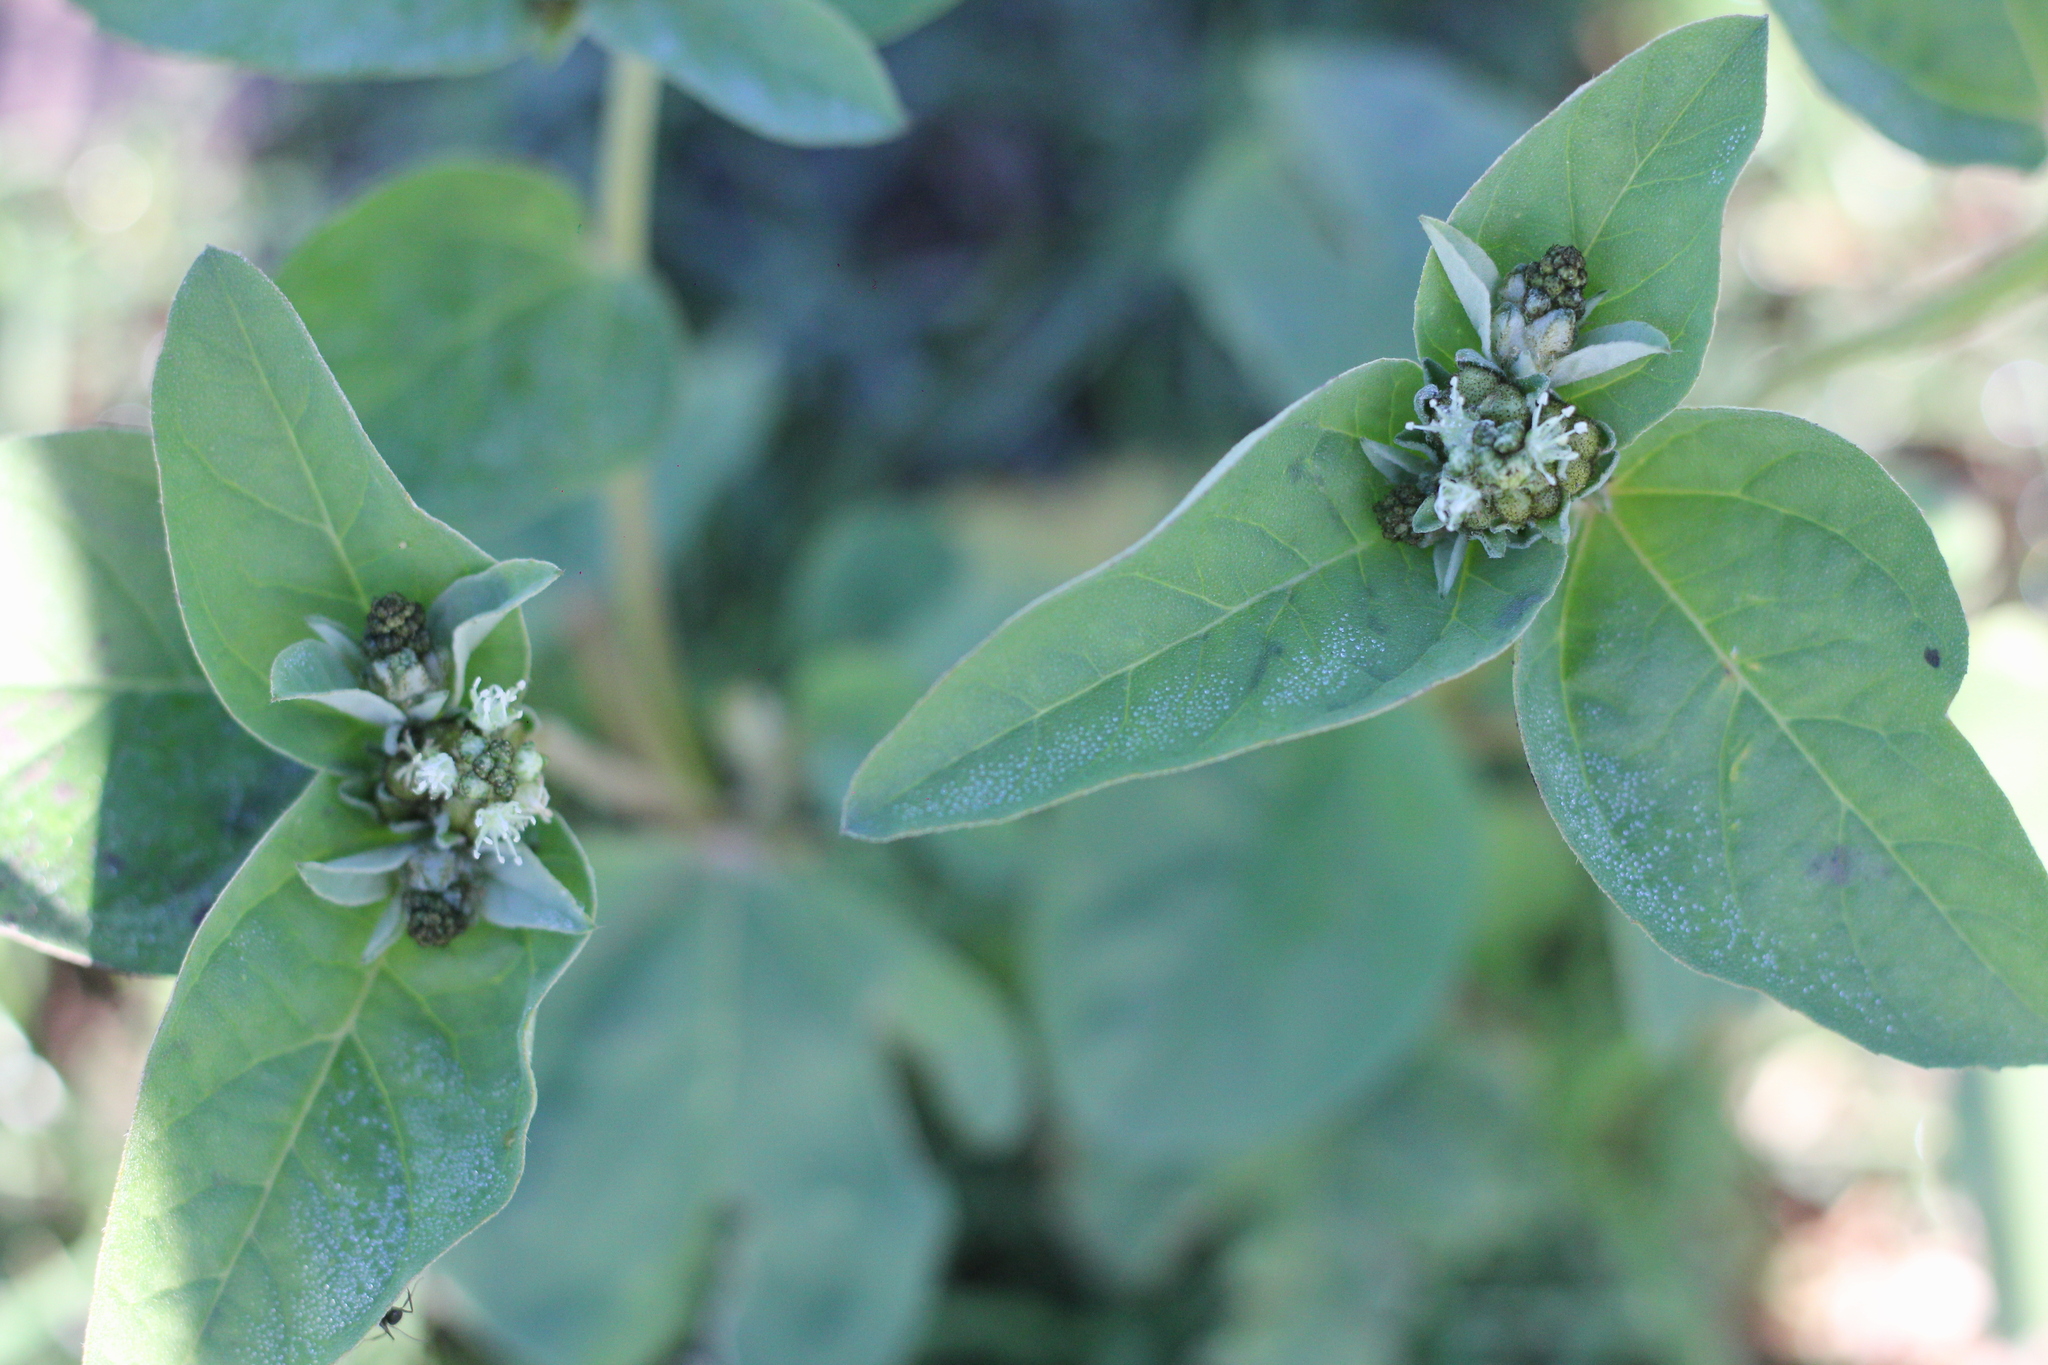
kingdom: Plantae
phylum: Tracheophyta
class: Magnoliopsida
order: Malpighiales
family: Euphorbiaceae
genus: Croton
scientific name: Croton argenteus
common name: Silver july croton
